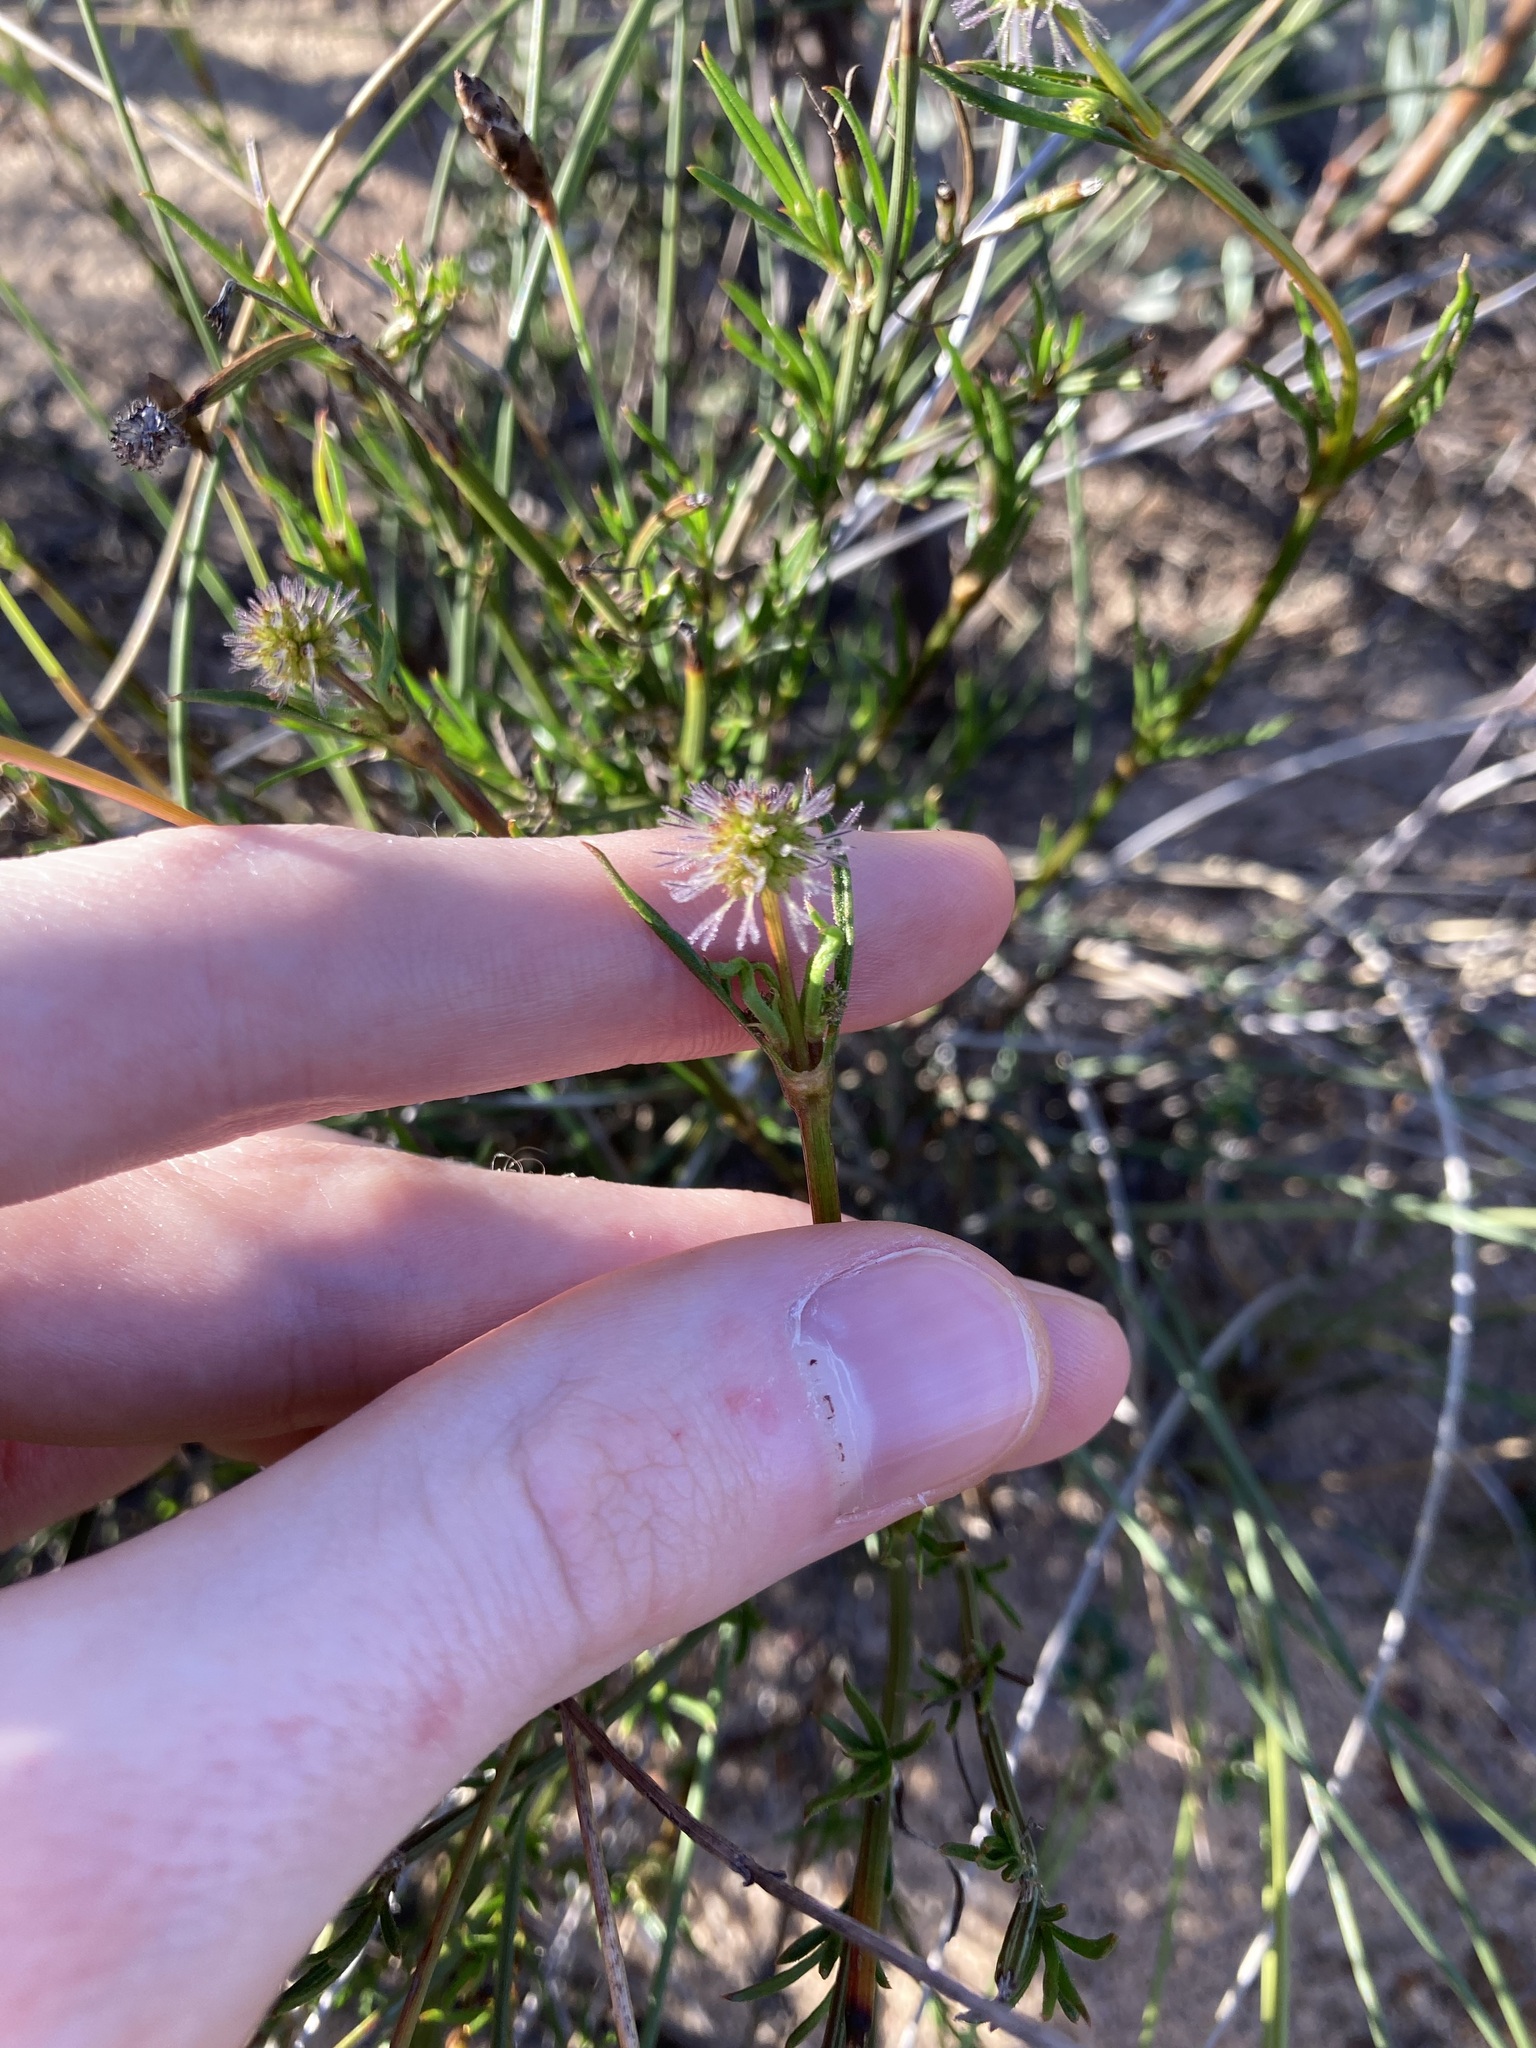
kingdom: Plantae
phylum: Tracheophyta
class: Magnoliopsida
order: Gentianales
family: Rubiaceae
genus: Opercularia
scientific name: Opercularia vaginata
